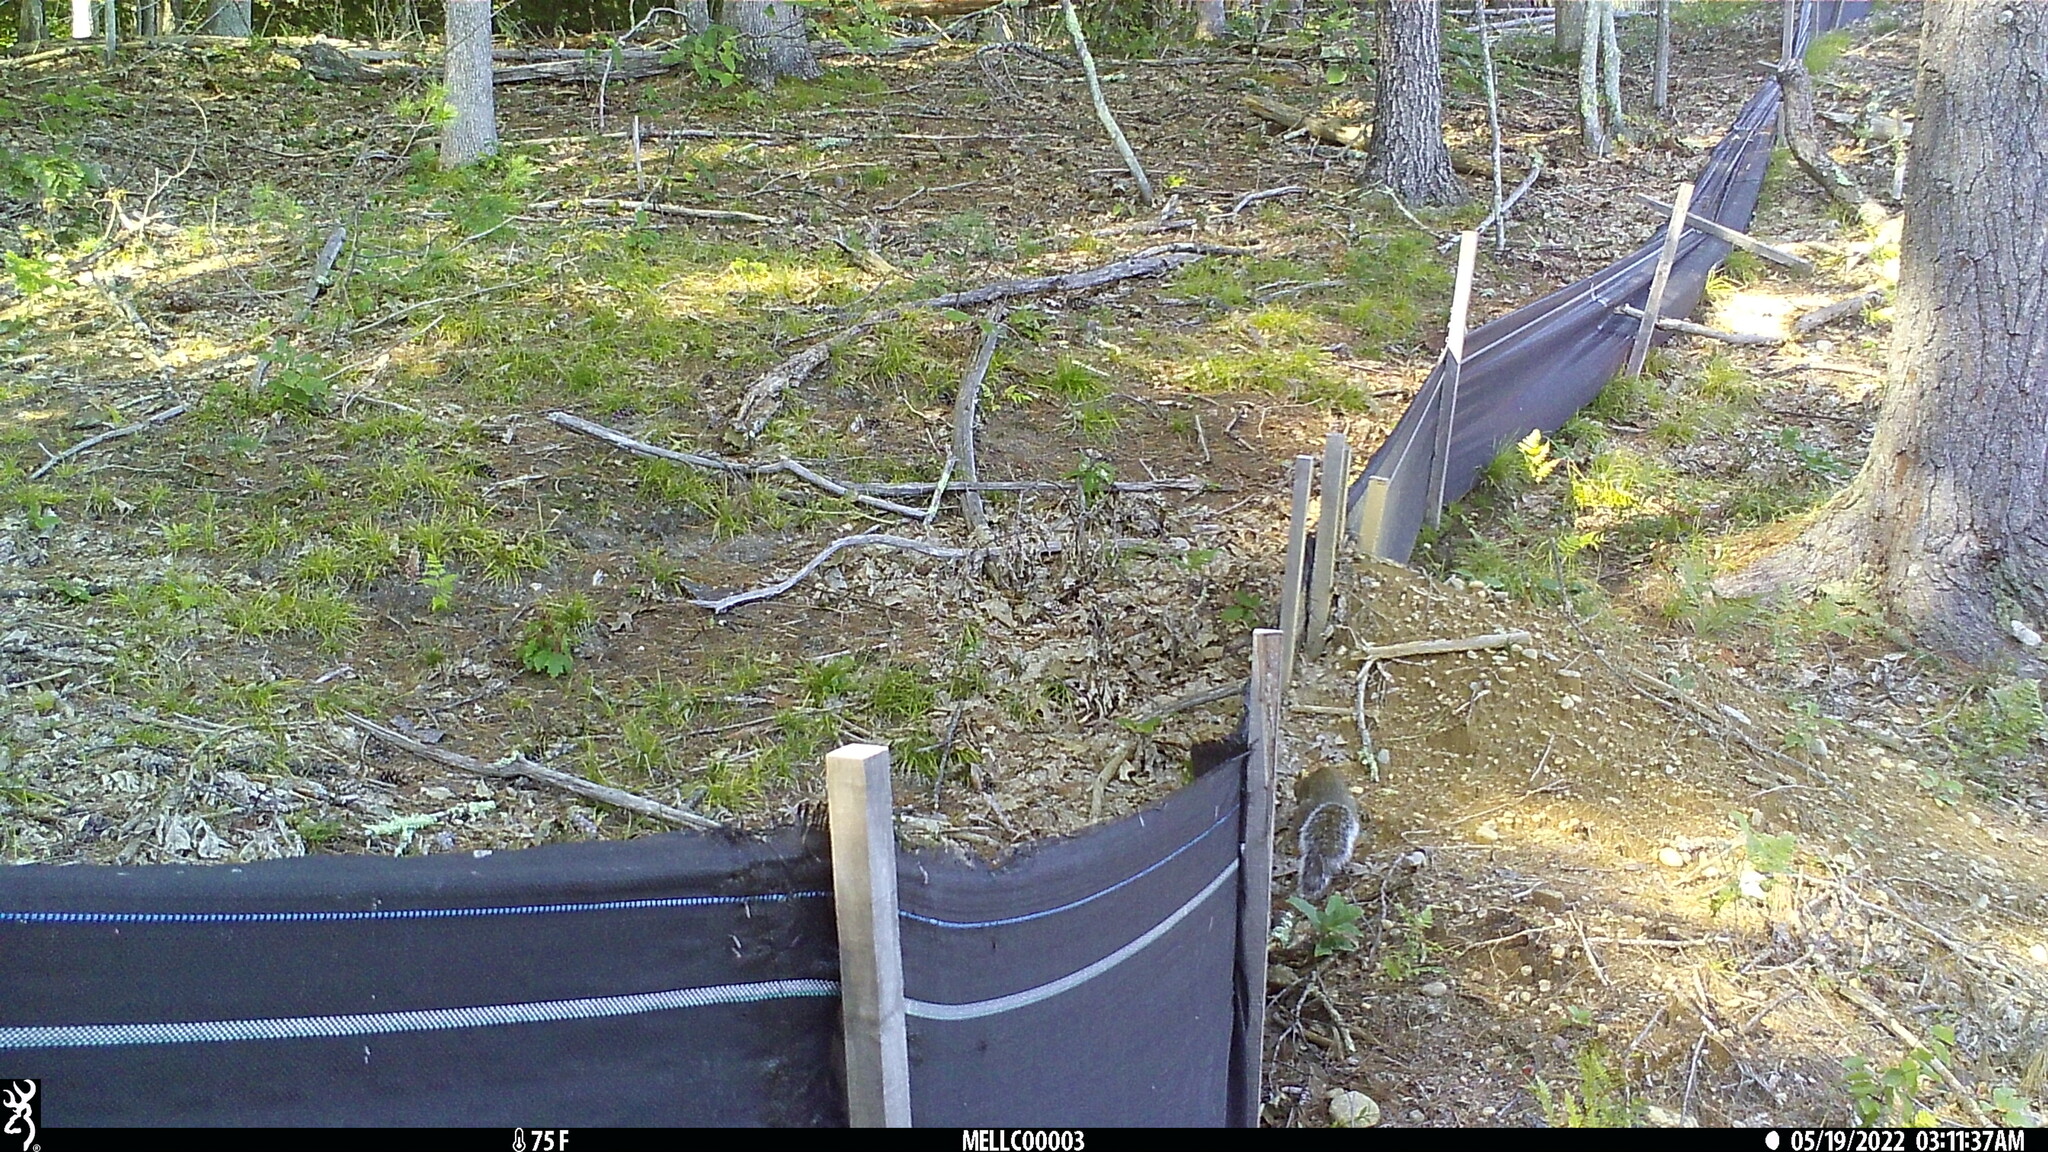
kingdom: Animalia
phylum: Chordata
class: Mammalia
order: Rodentia
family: Sciuridae
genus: Sciurus
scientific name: Sciurus carolinensis
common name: Eastern gray squirrel
